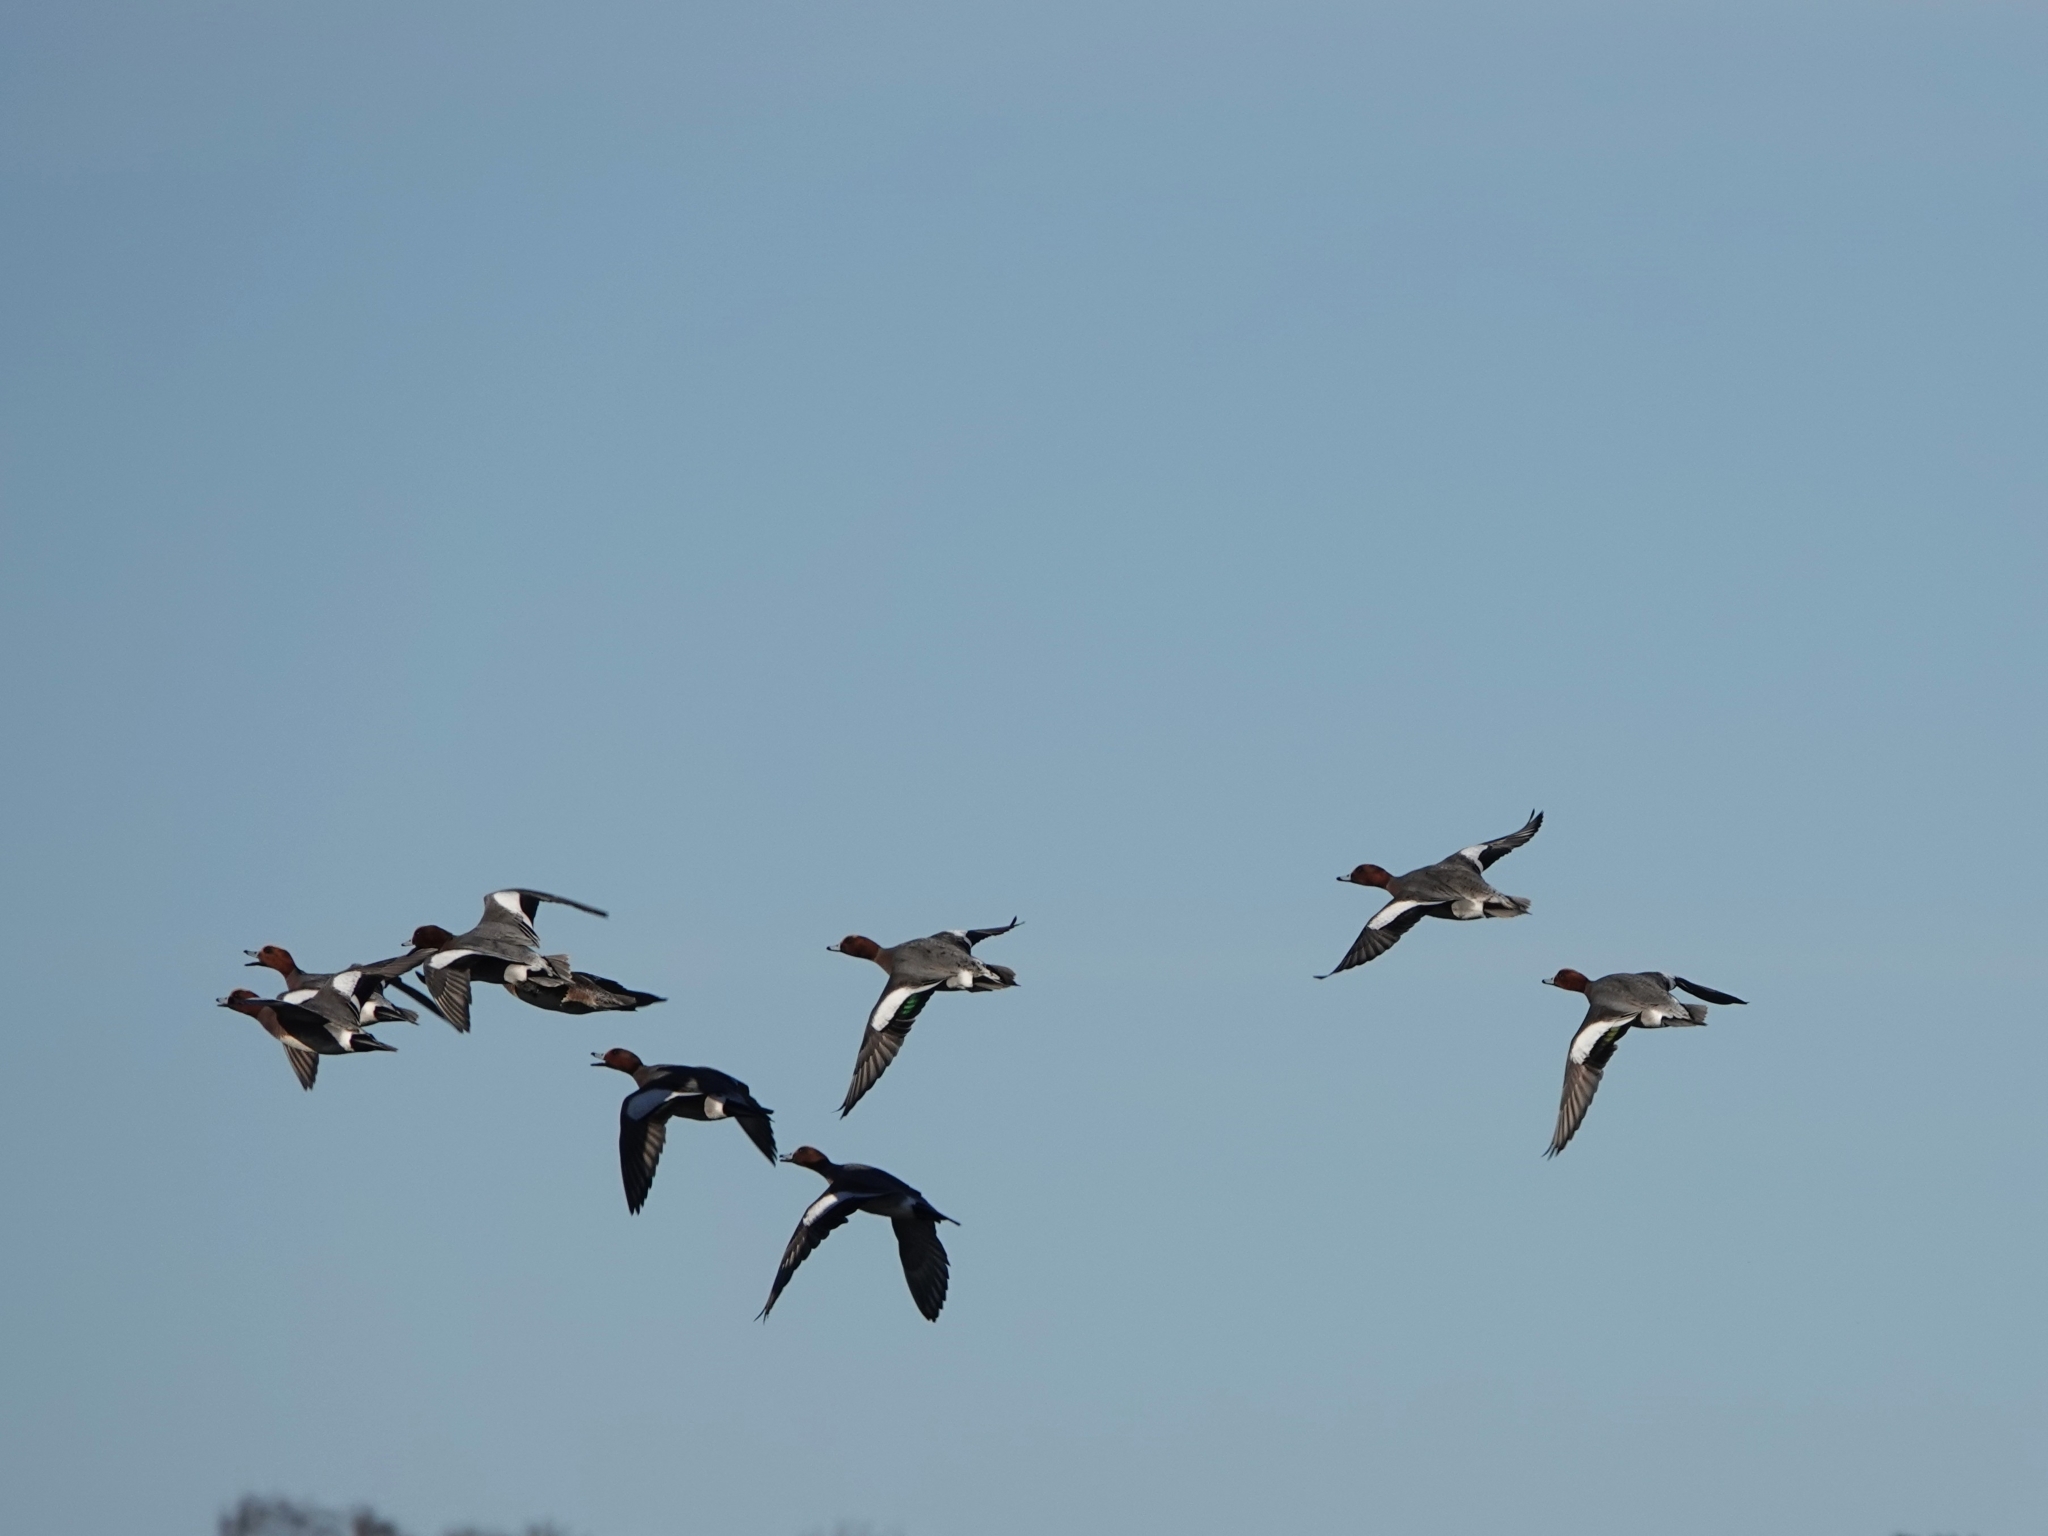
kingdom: Animalia
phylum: Chordata
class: Aves
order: Anseriformes
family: Anatidae
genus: Mareca
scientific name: Mareca penelope
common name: Eurasian wigeon
